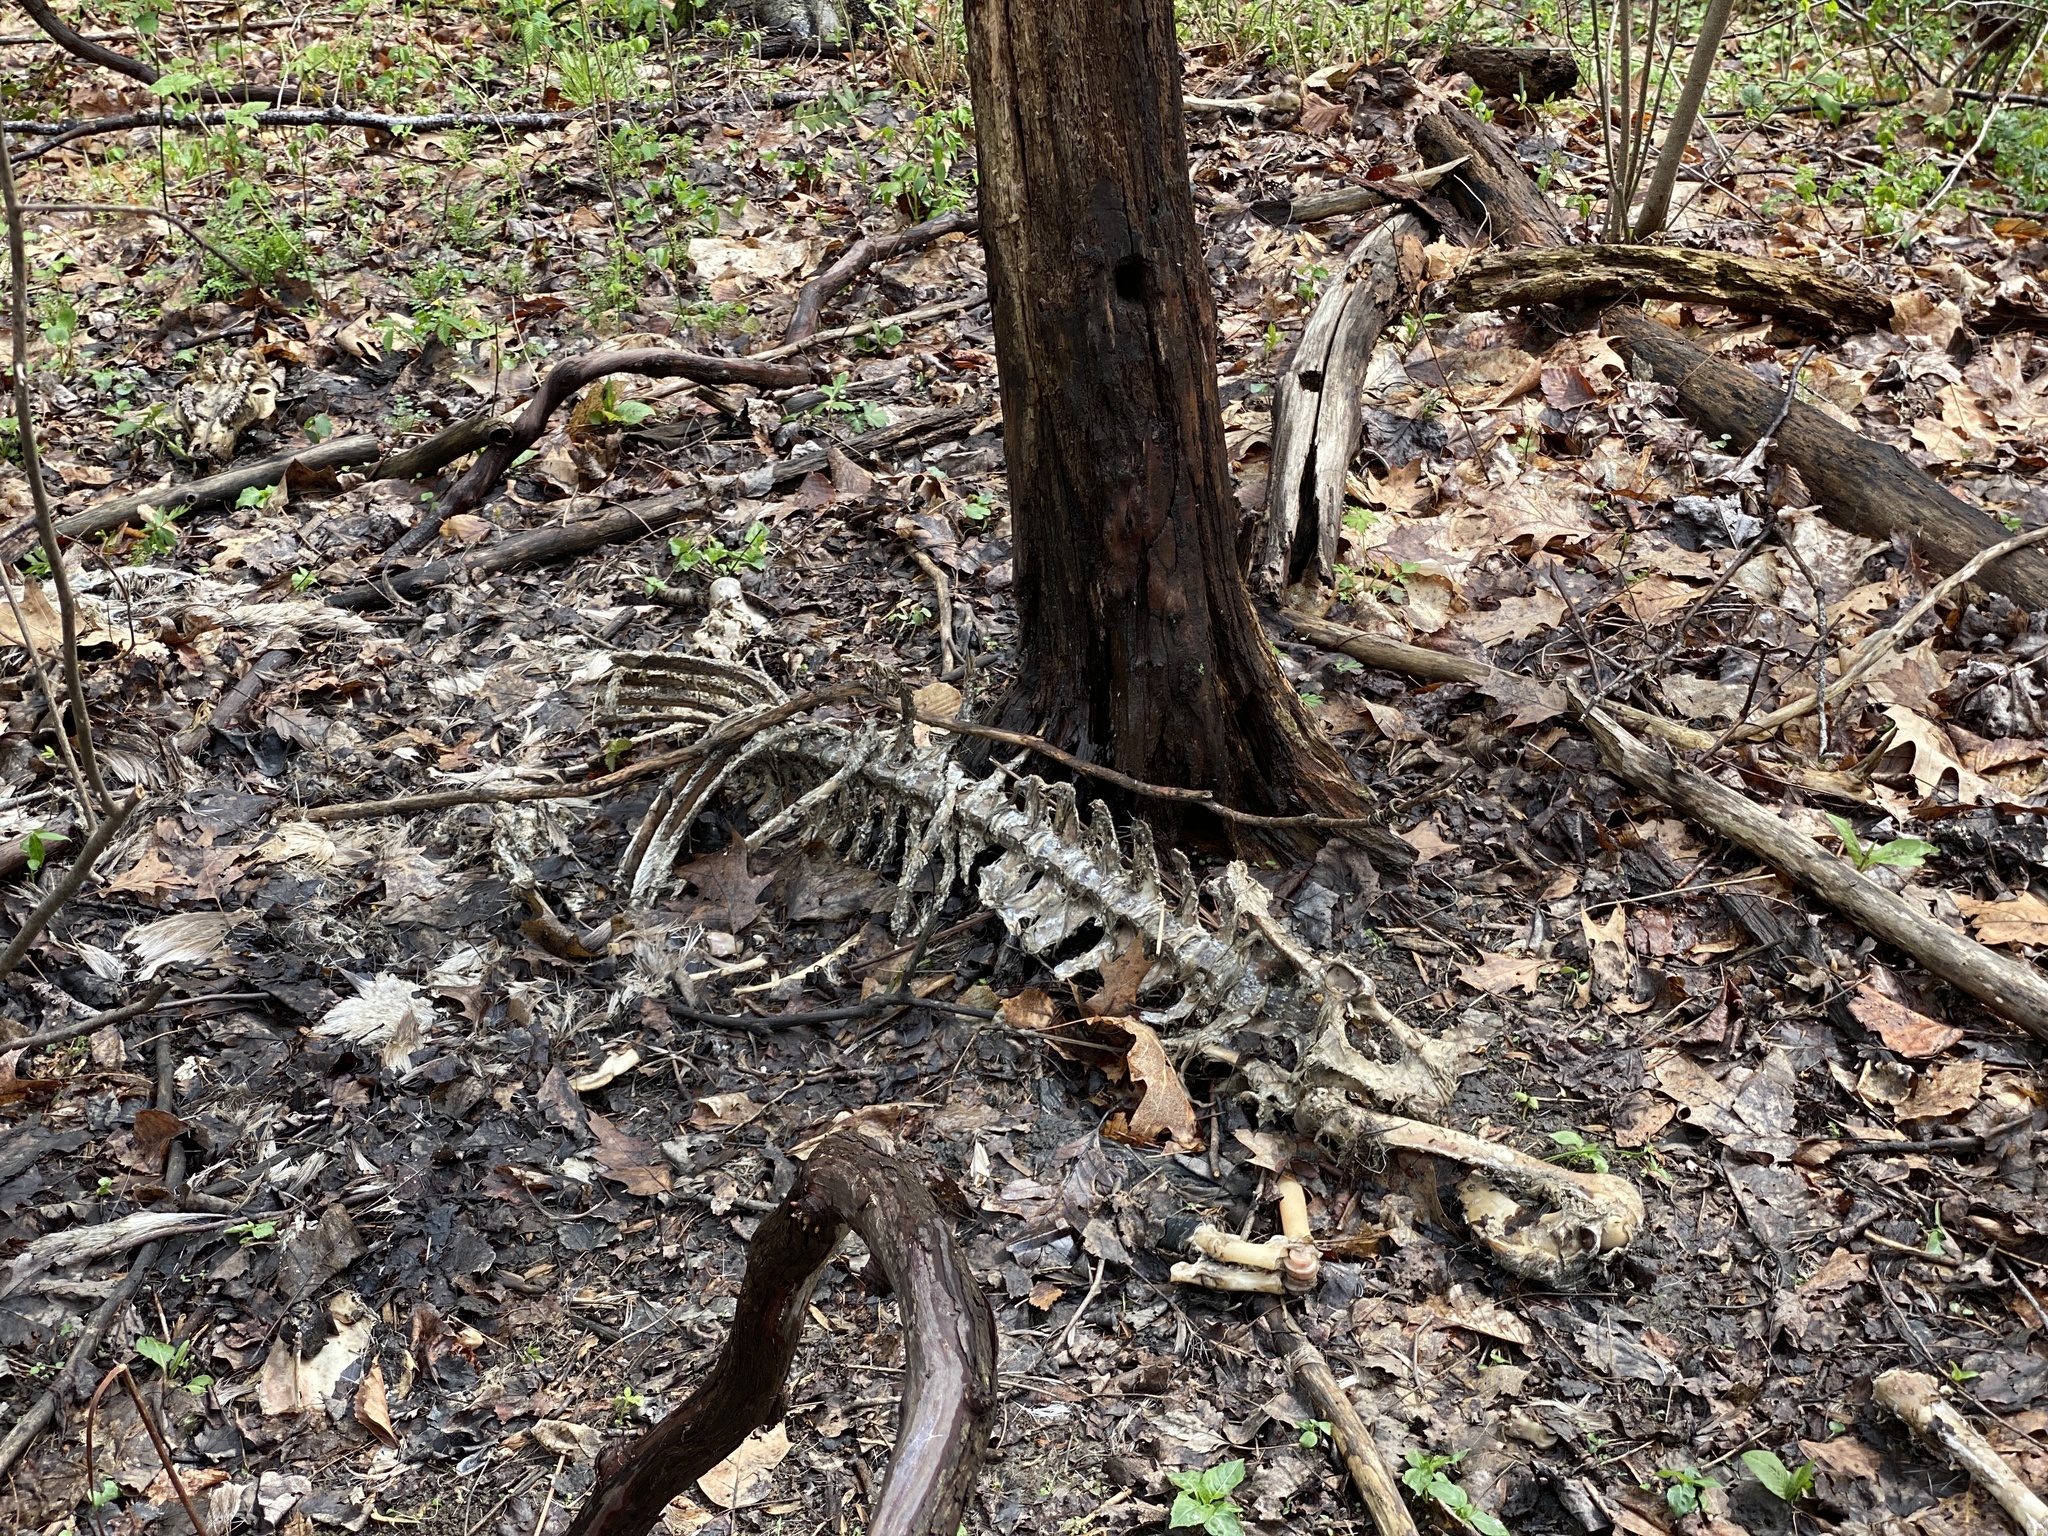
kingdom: Animalia
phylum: Chordata
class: Mammalia
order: Artiodactyla
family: Cervidae
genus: Odocoileus
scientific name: Odocoileus virginianus
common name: White-tailed deer
